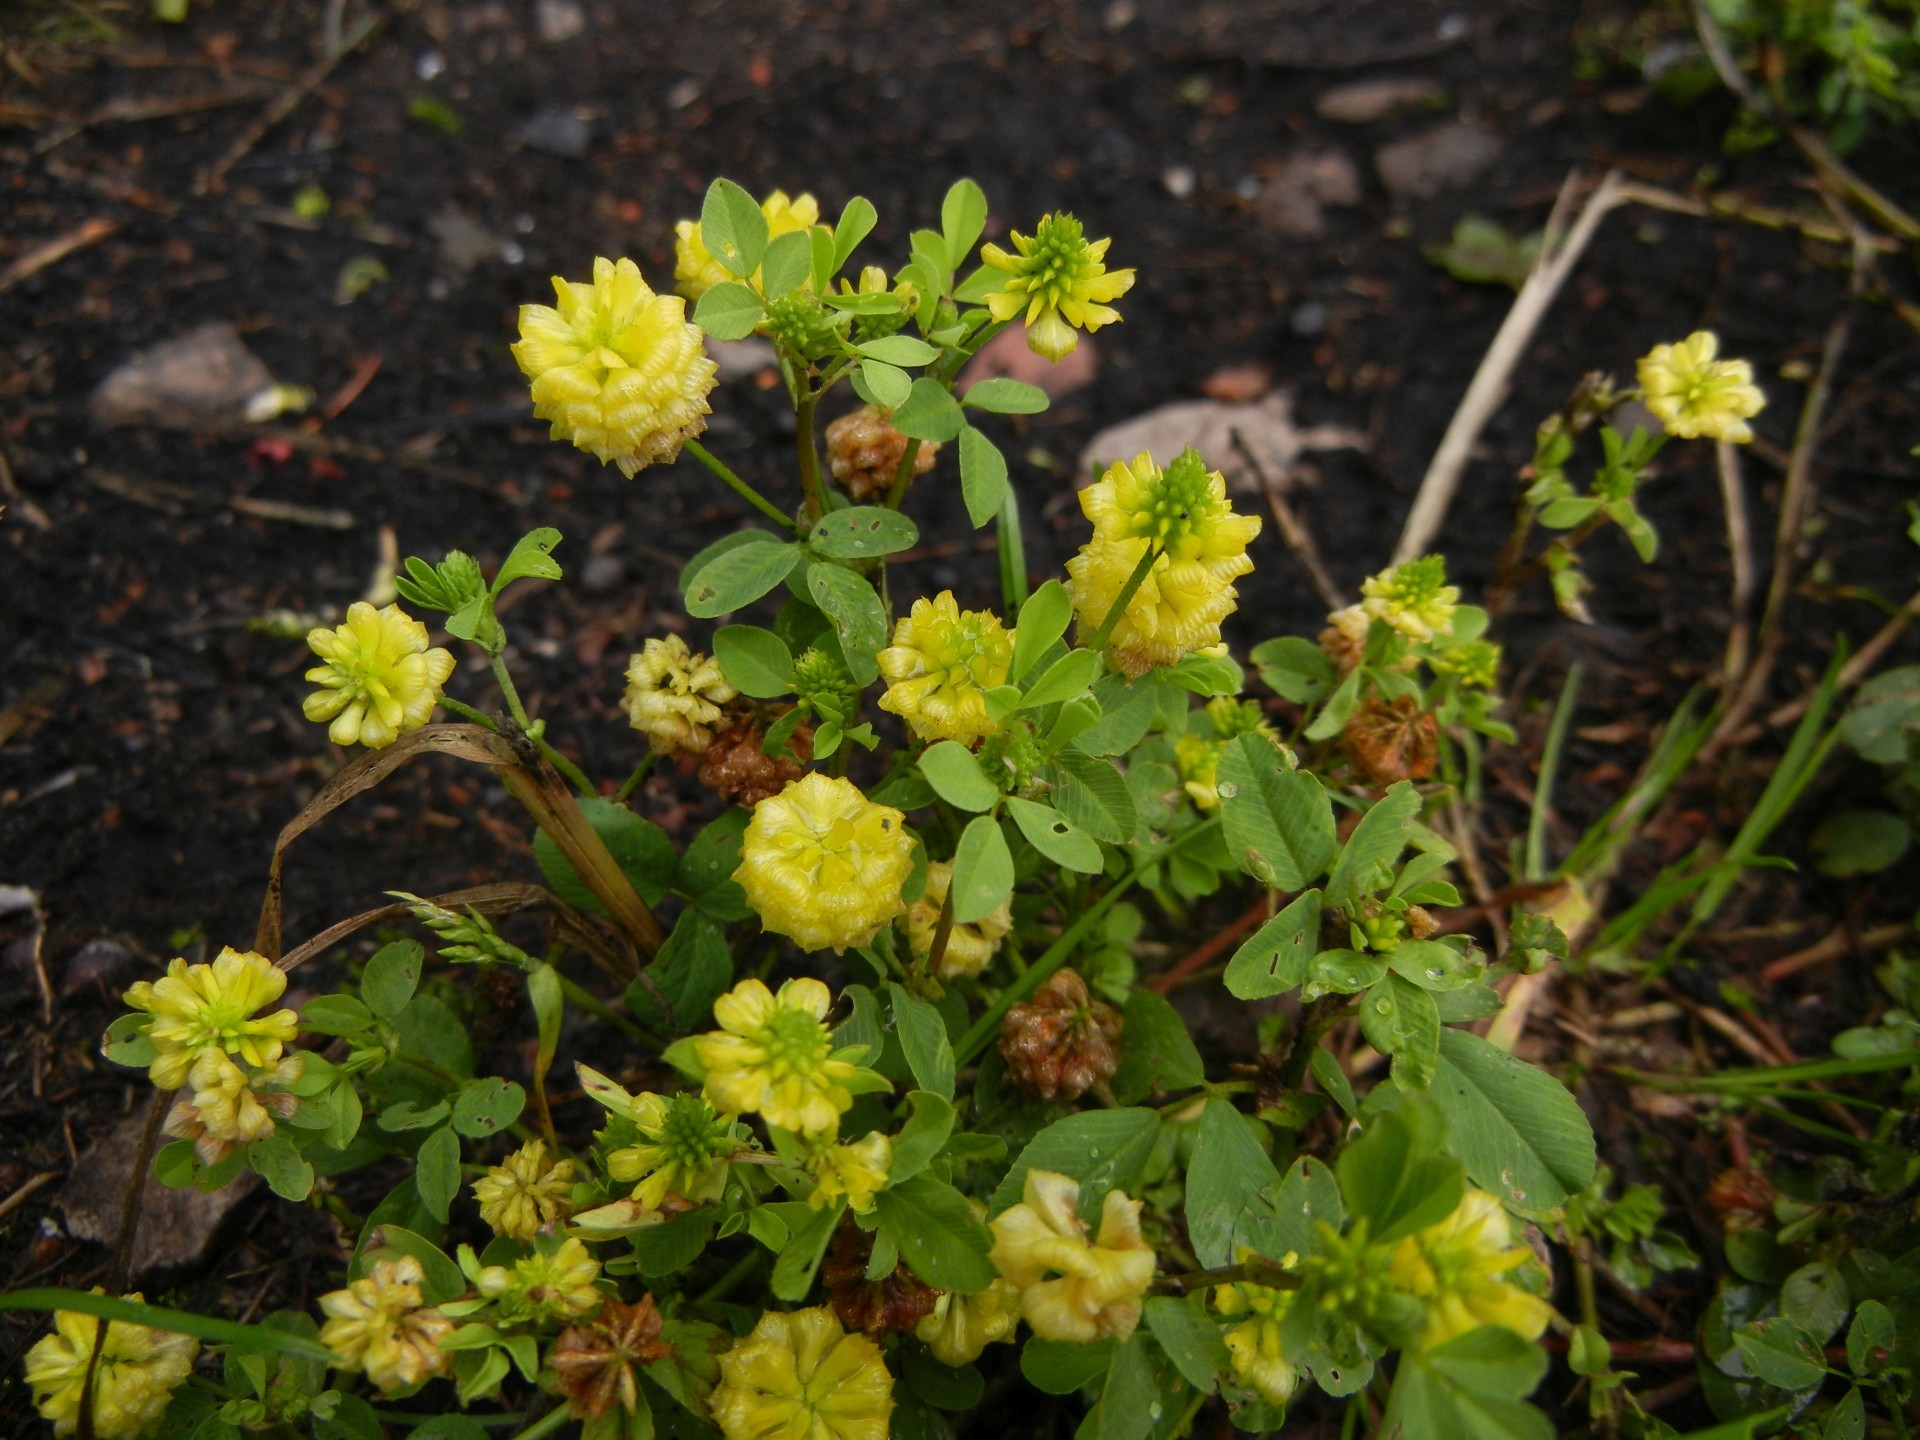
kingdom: Plantae
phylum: Tracheophyta
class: Magnoliopsida
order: Fabales
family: Fabaceae
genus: Trifolium
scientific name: Trifolium campestre
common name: Field clover
